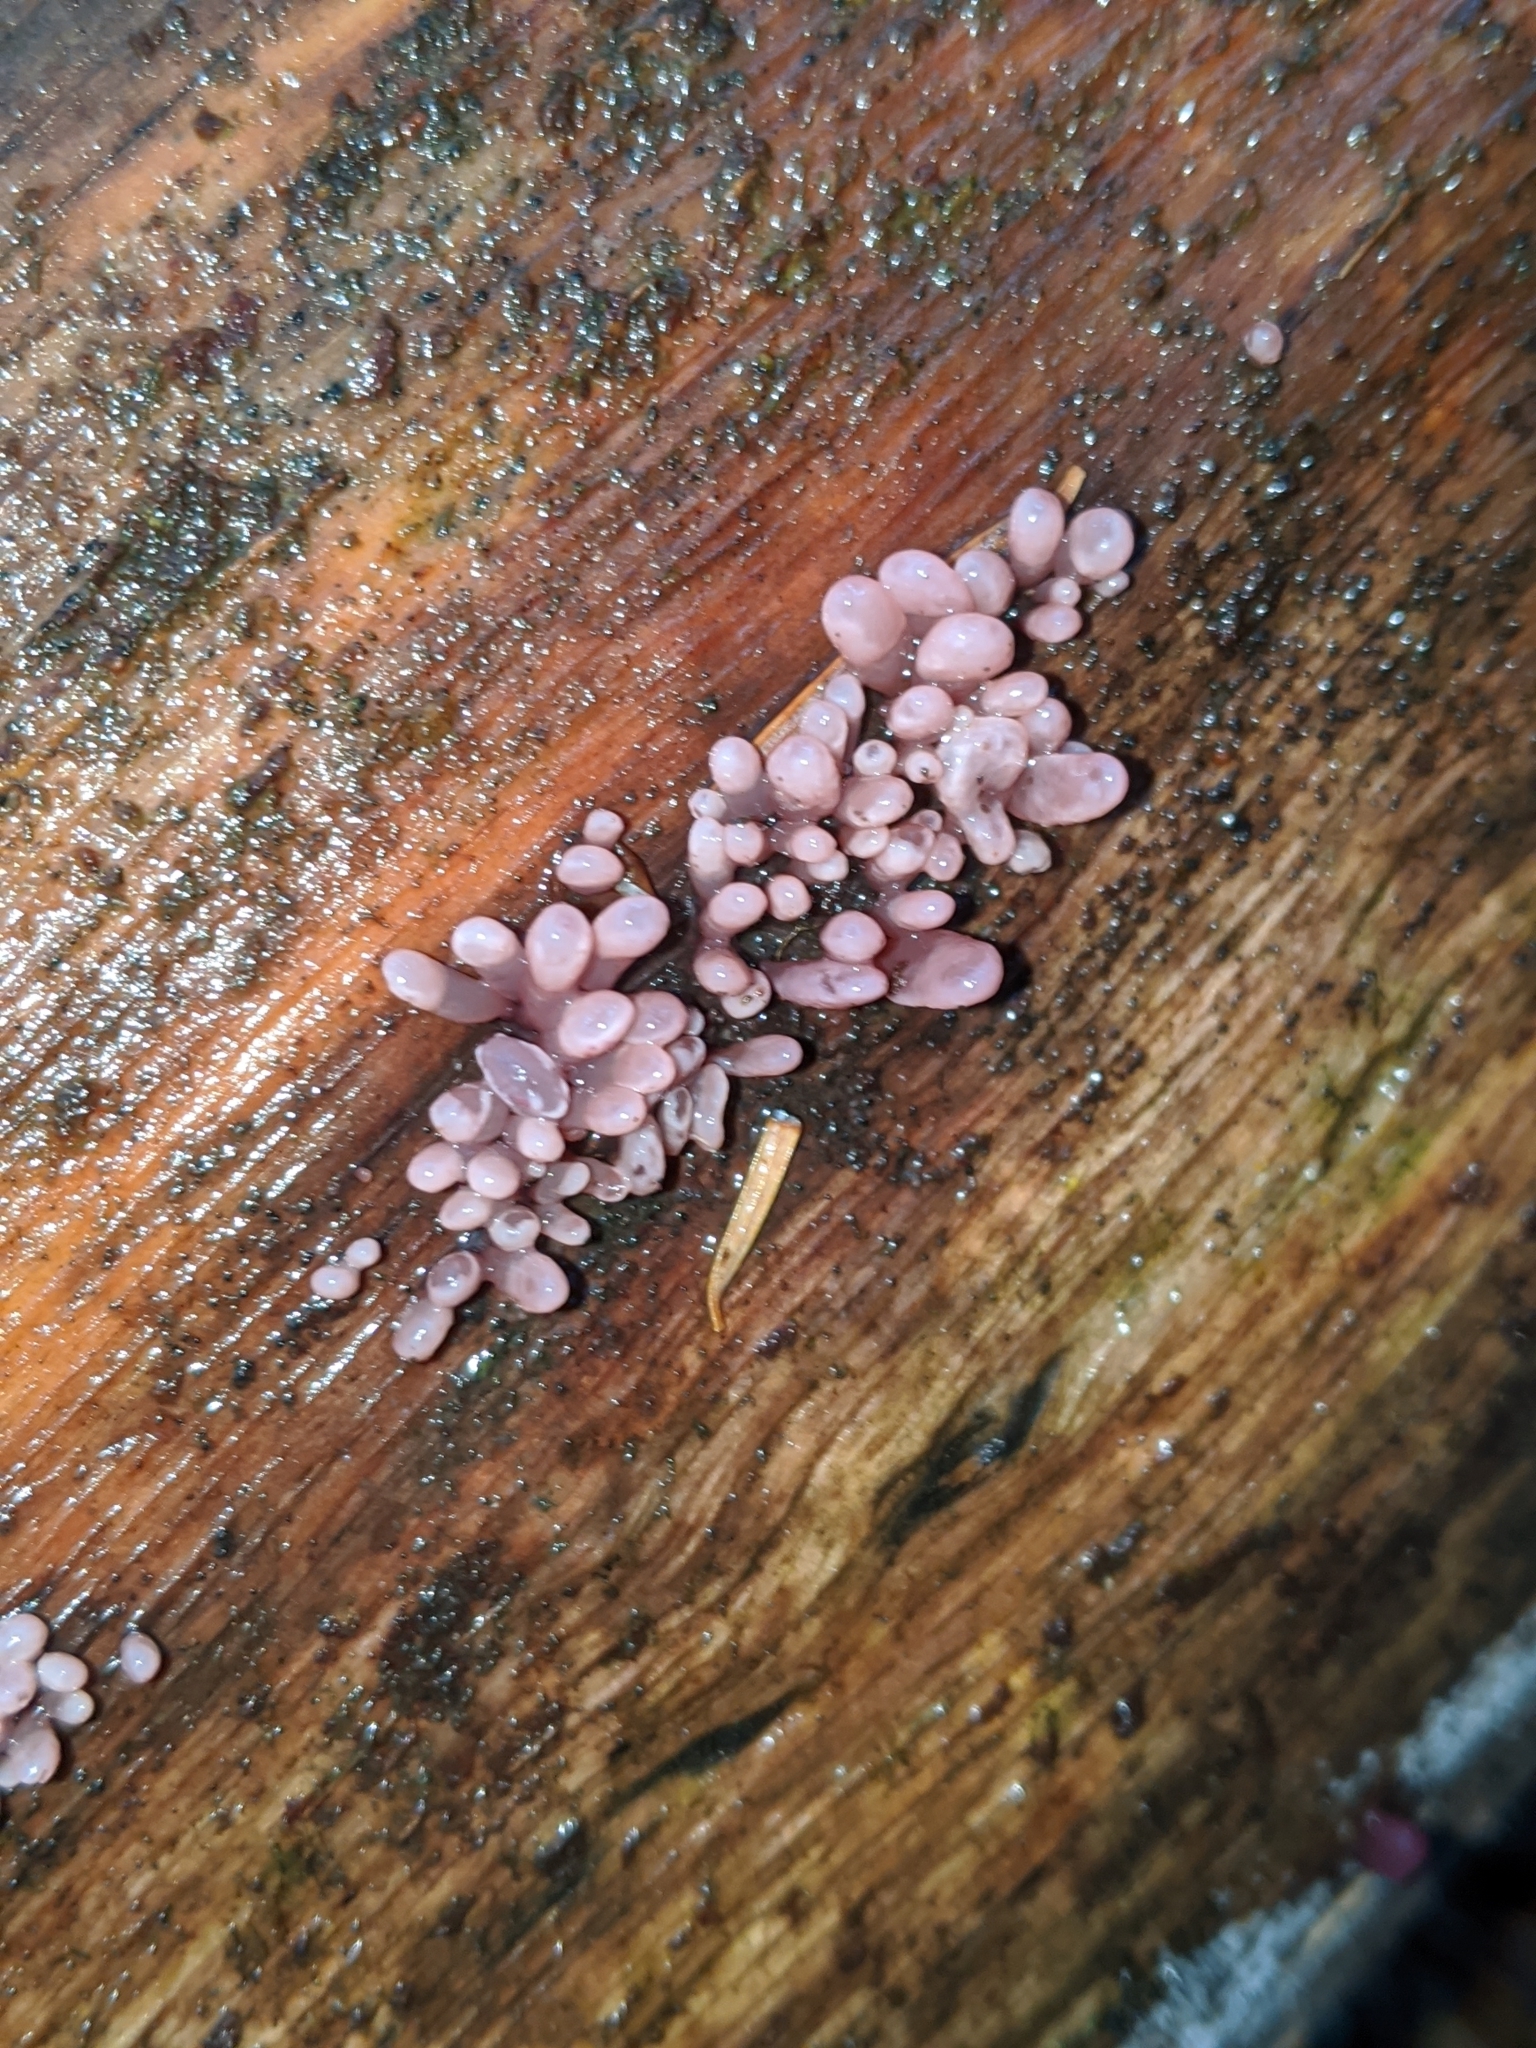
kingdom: Fungi
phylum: Ascomycota
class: Leotiomycetes
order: Helotiales
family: Gelatinodiscaceae
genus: Ascocoryne
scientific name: Ascocoryne sarcoides
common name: Purple jellydisc
